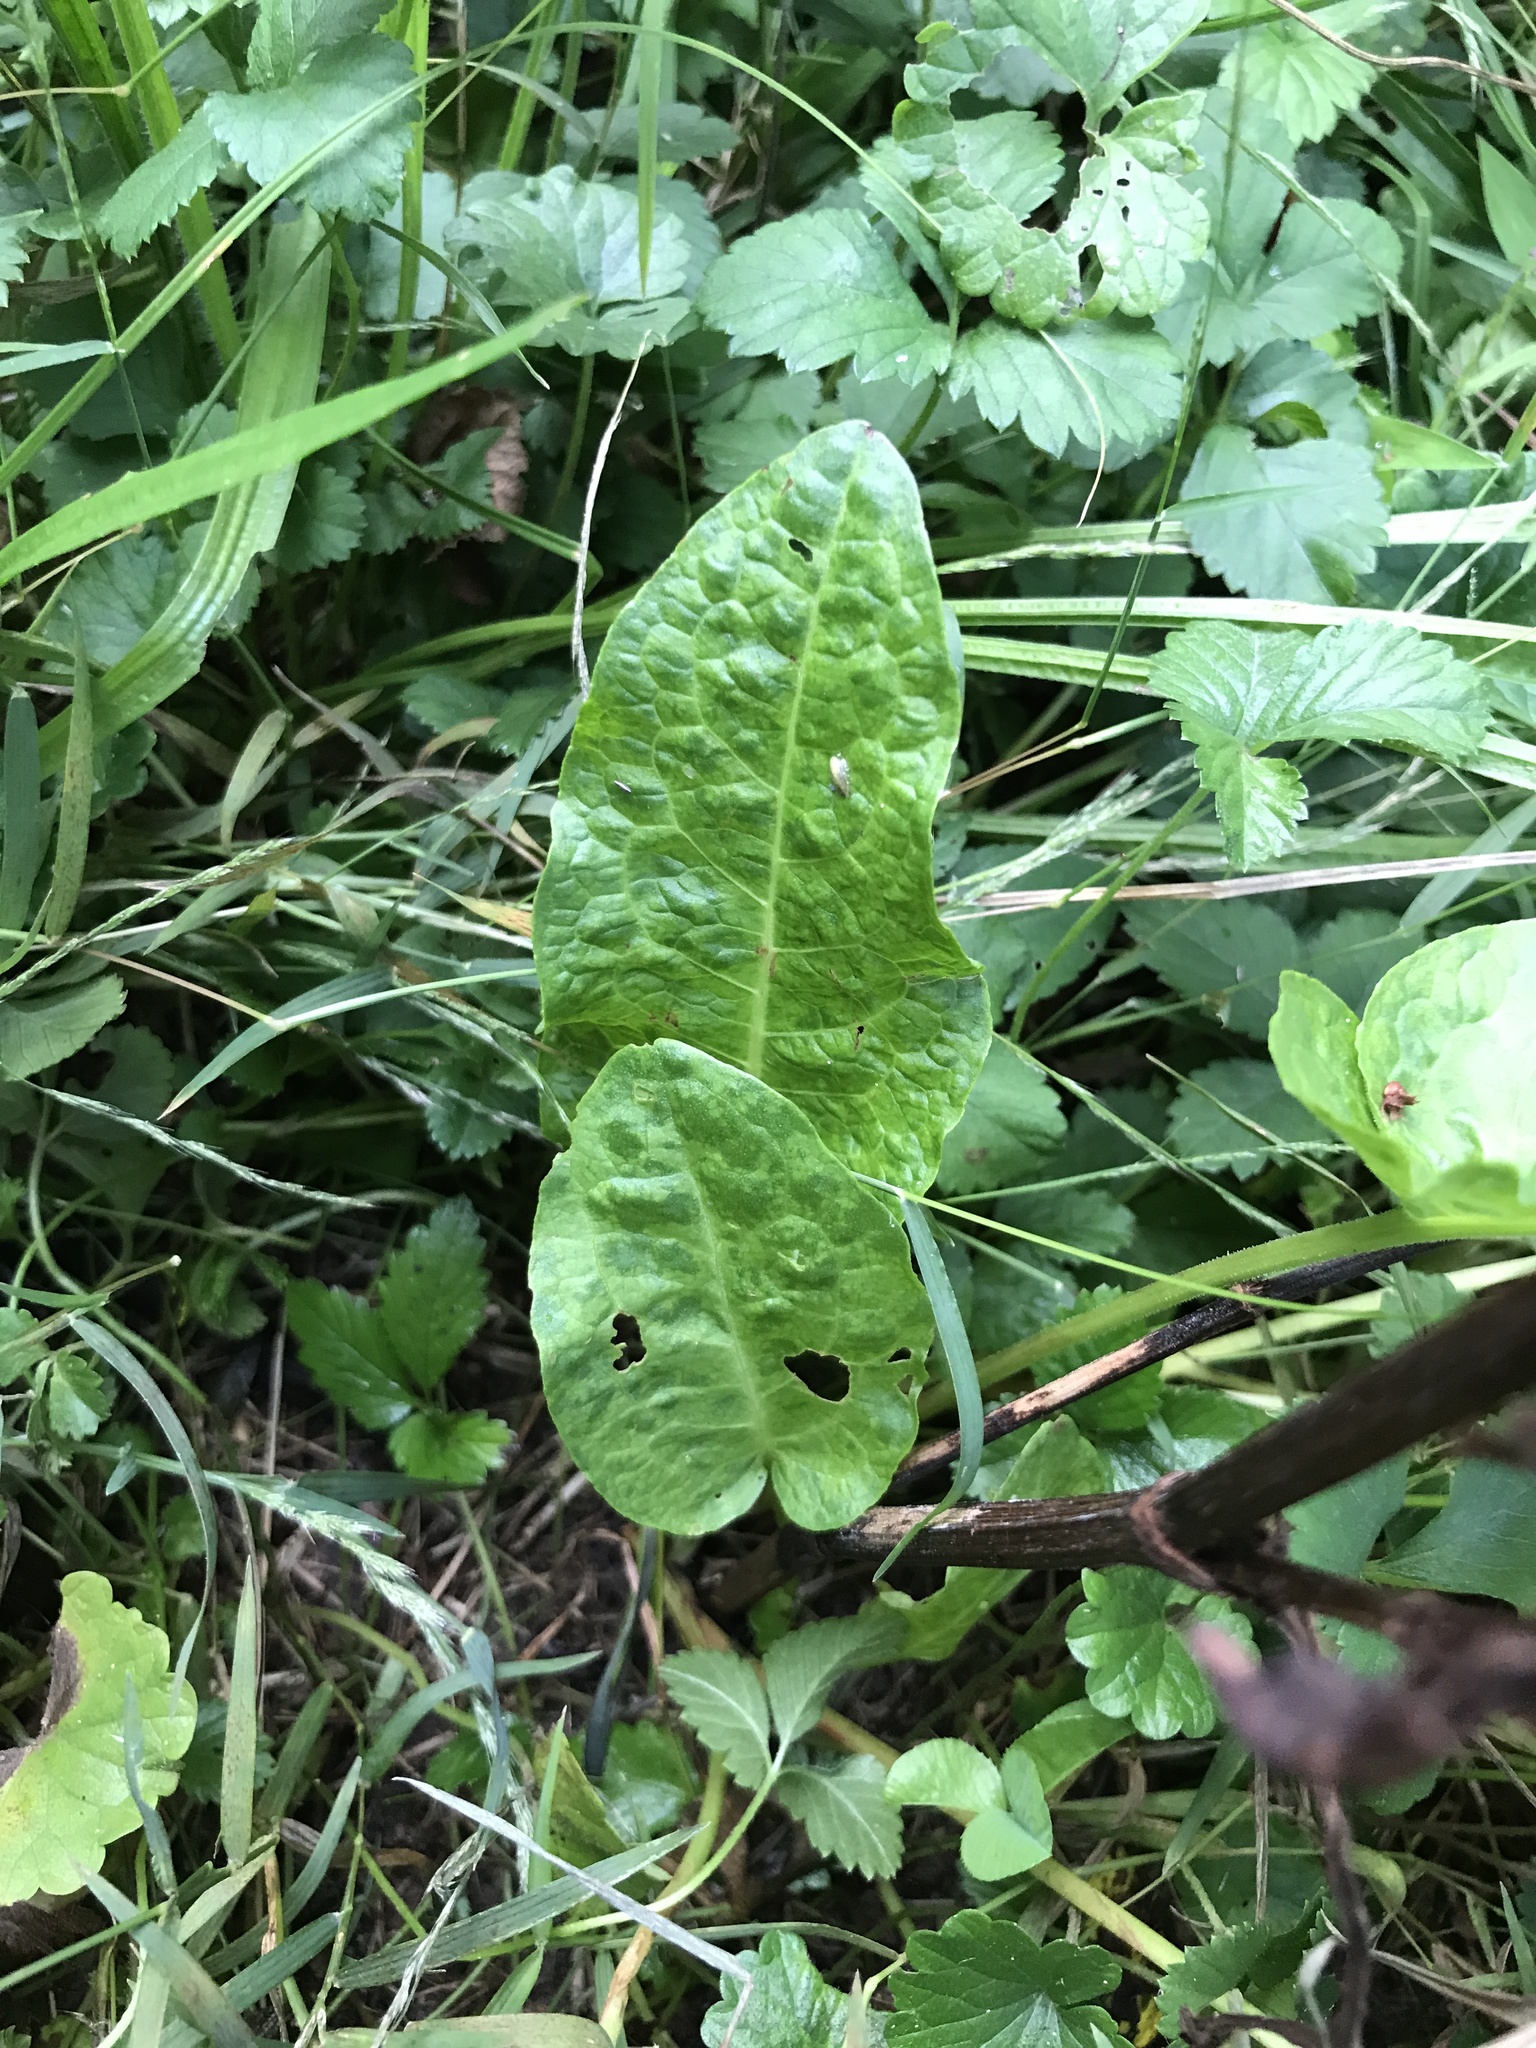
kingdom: Plantae
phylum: Tracheophyta
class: Magnoliopsida
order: Caryophyllales
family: Polygonaceae
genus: Rumex
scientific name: Rumex obtusifolius
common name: Bitter dock
